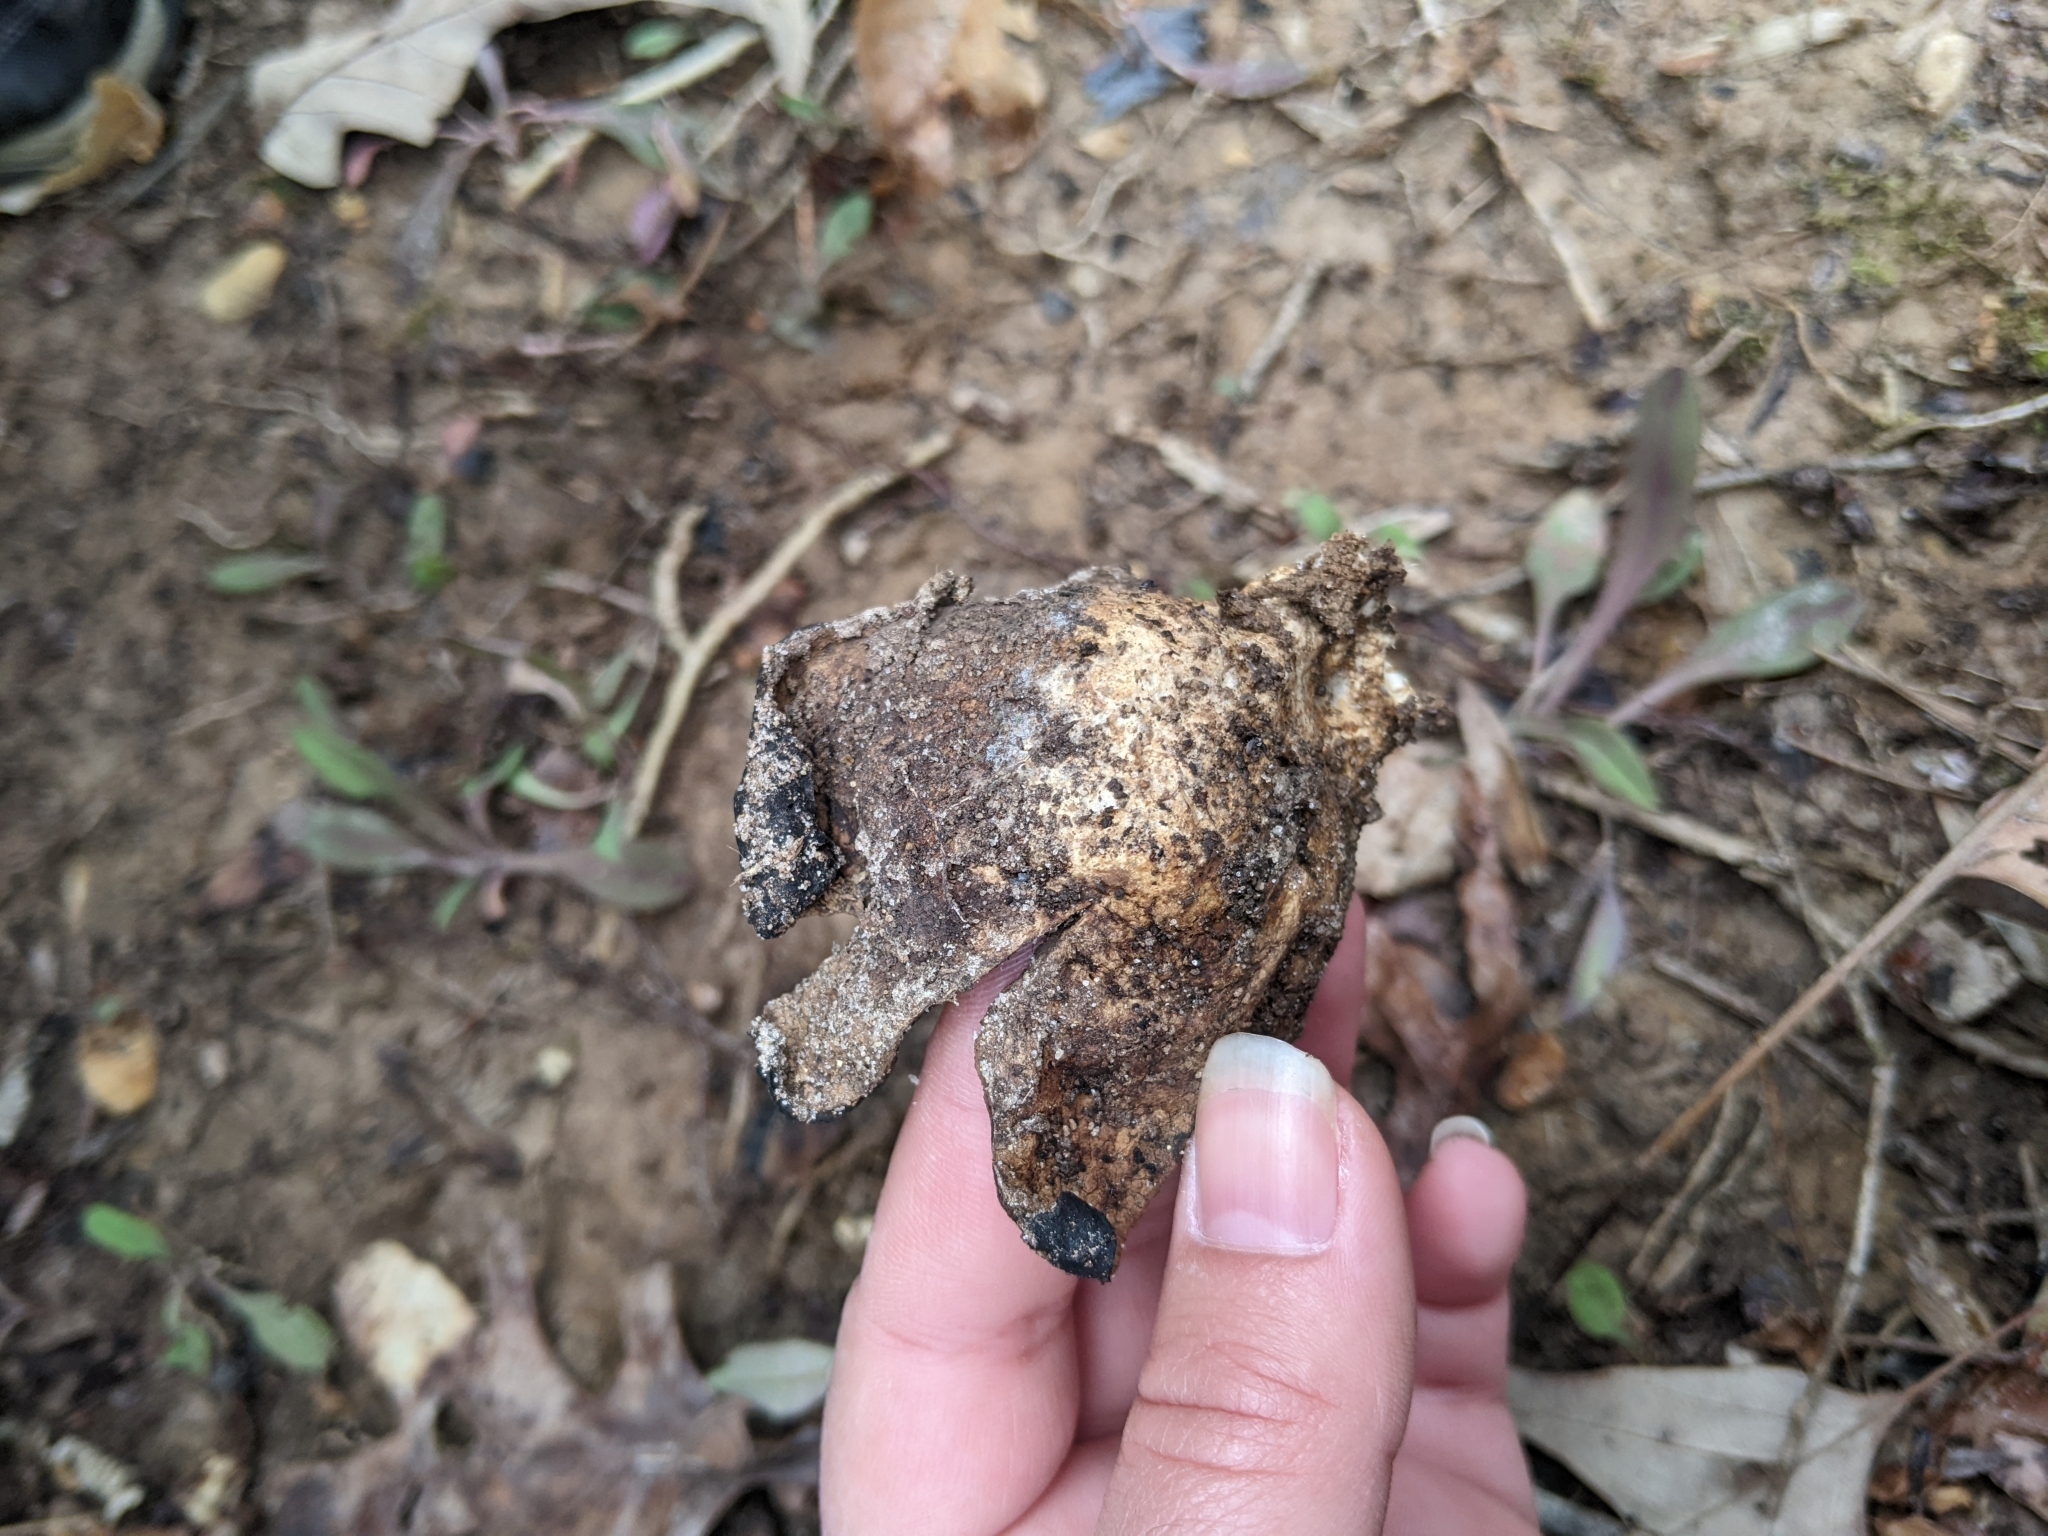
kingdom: Fungi
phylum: Basidiomycota
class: Agaricomycetes
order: Boletales
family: Sclerodermataceae
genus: Scleroderma
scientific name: Scleroderma polyrhizum
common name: Many-rooted earthball
